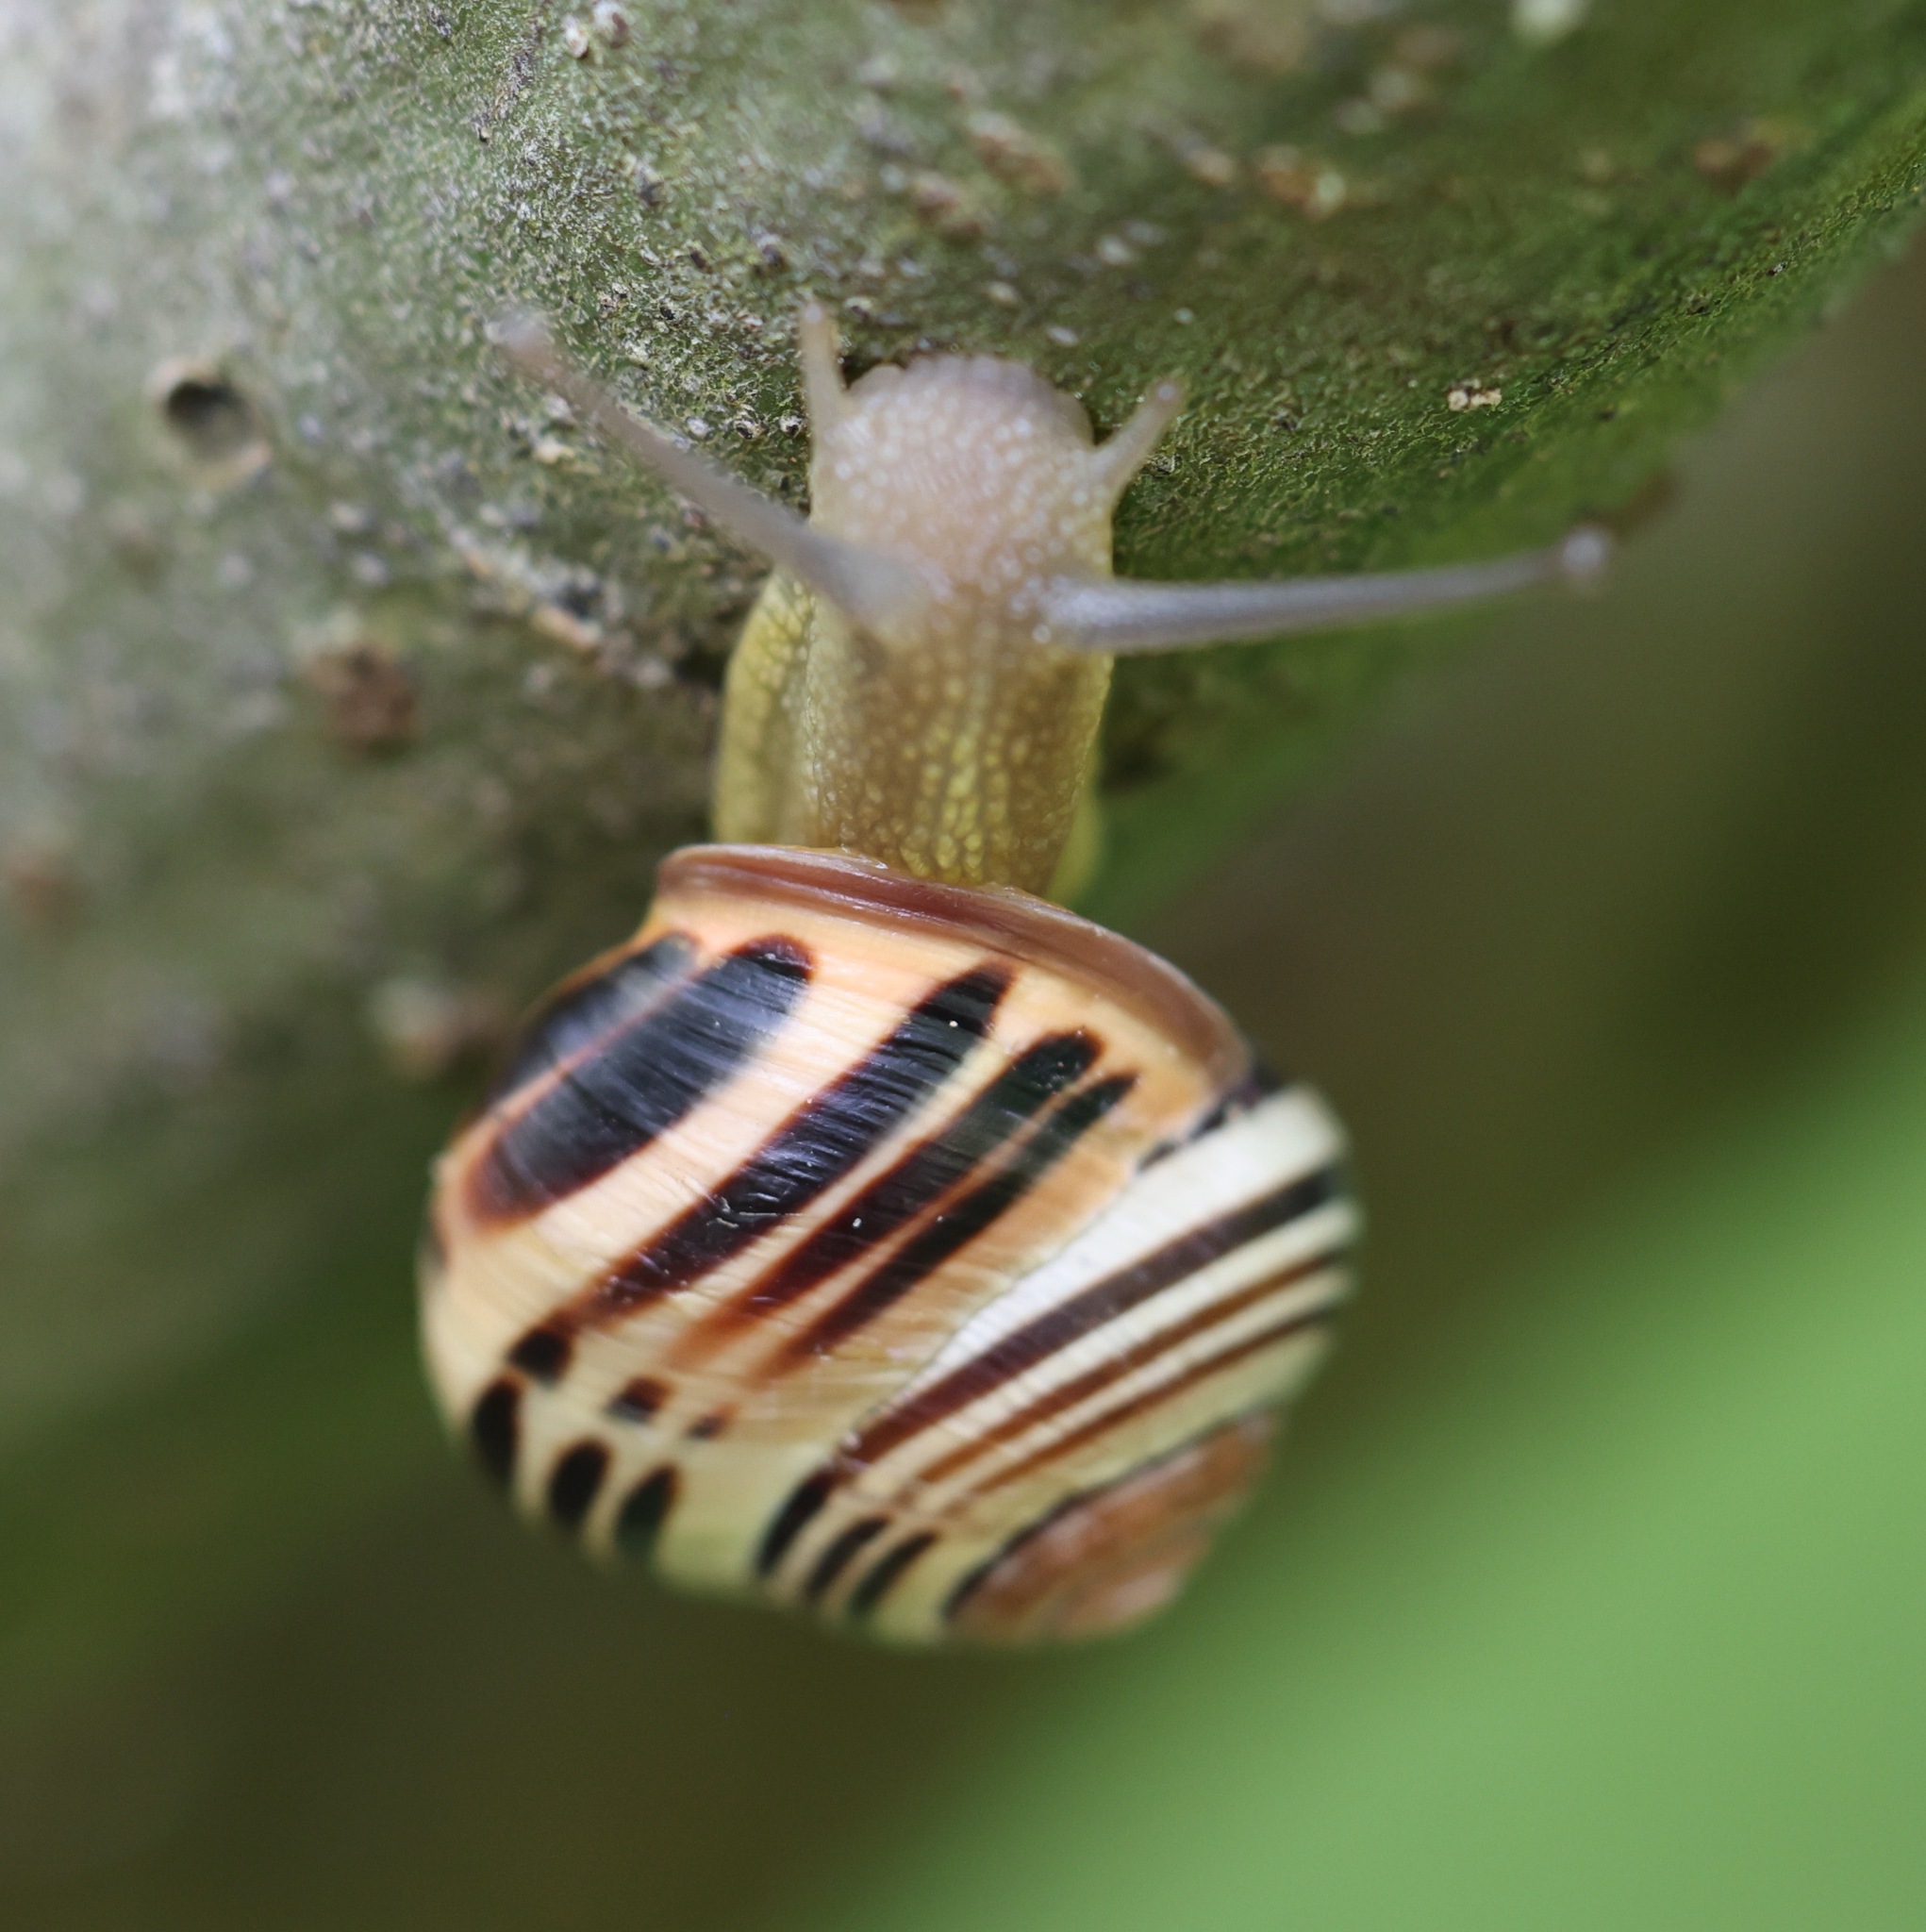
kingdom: Animalia
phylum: Mollusca
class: Gastropoda
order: Stylommatophora
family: Helicidae
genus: Cepaea
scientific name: Cepaea nemoralis
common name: Grovesnail
